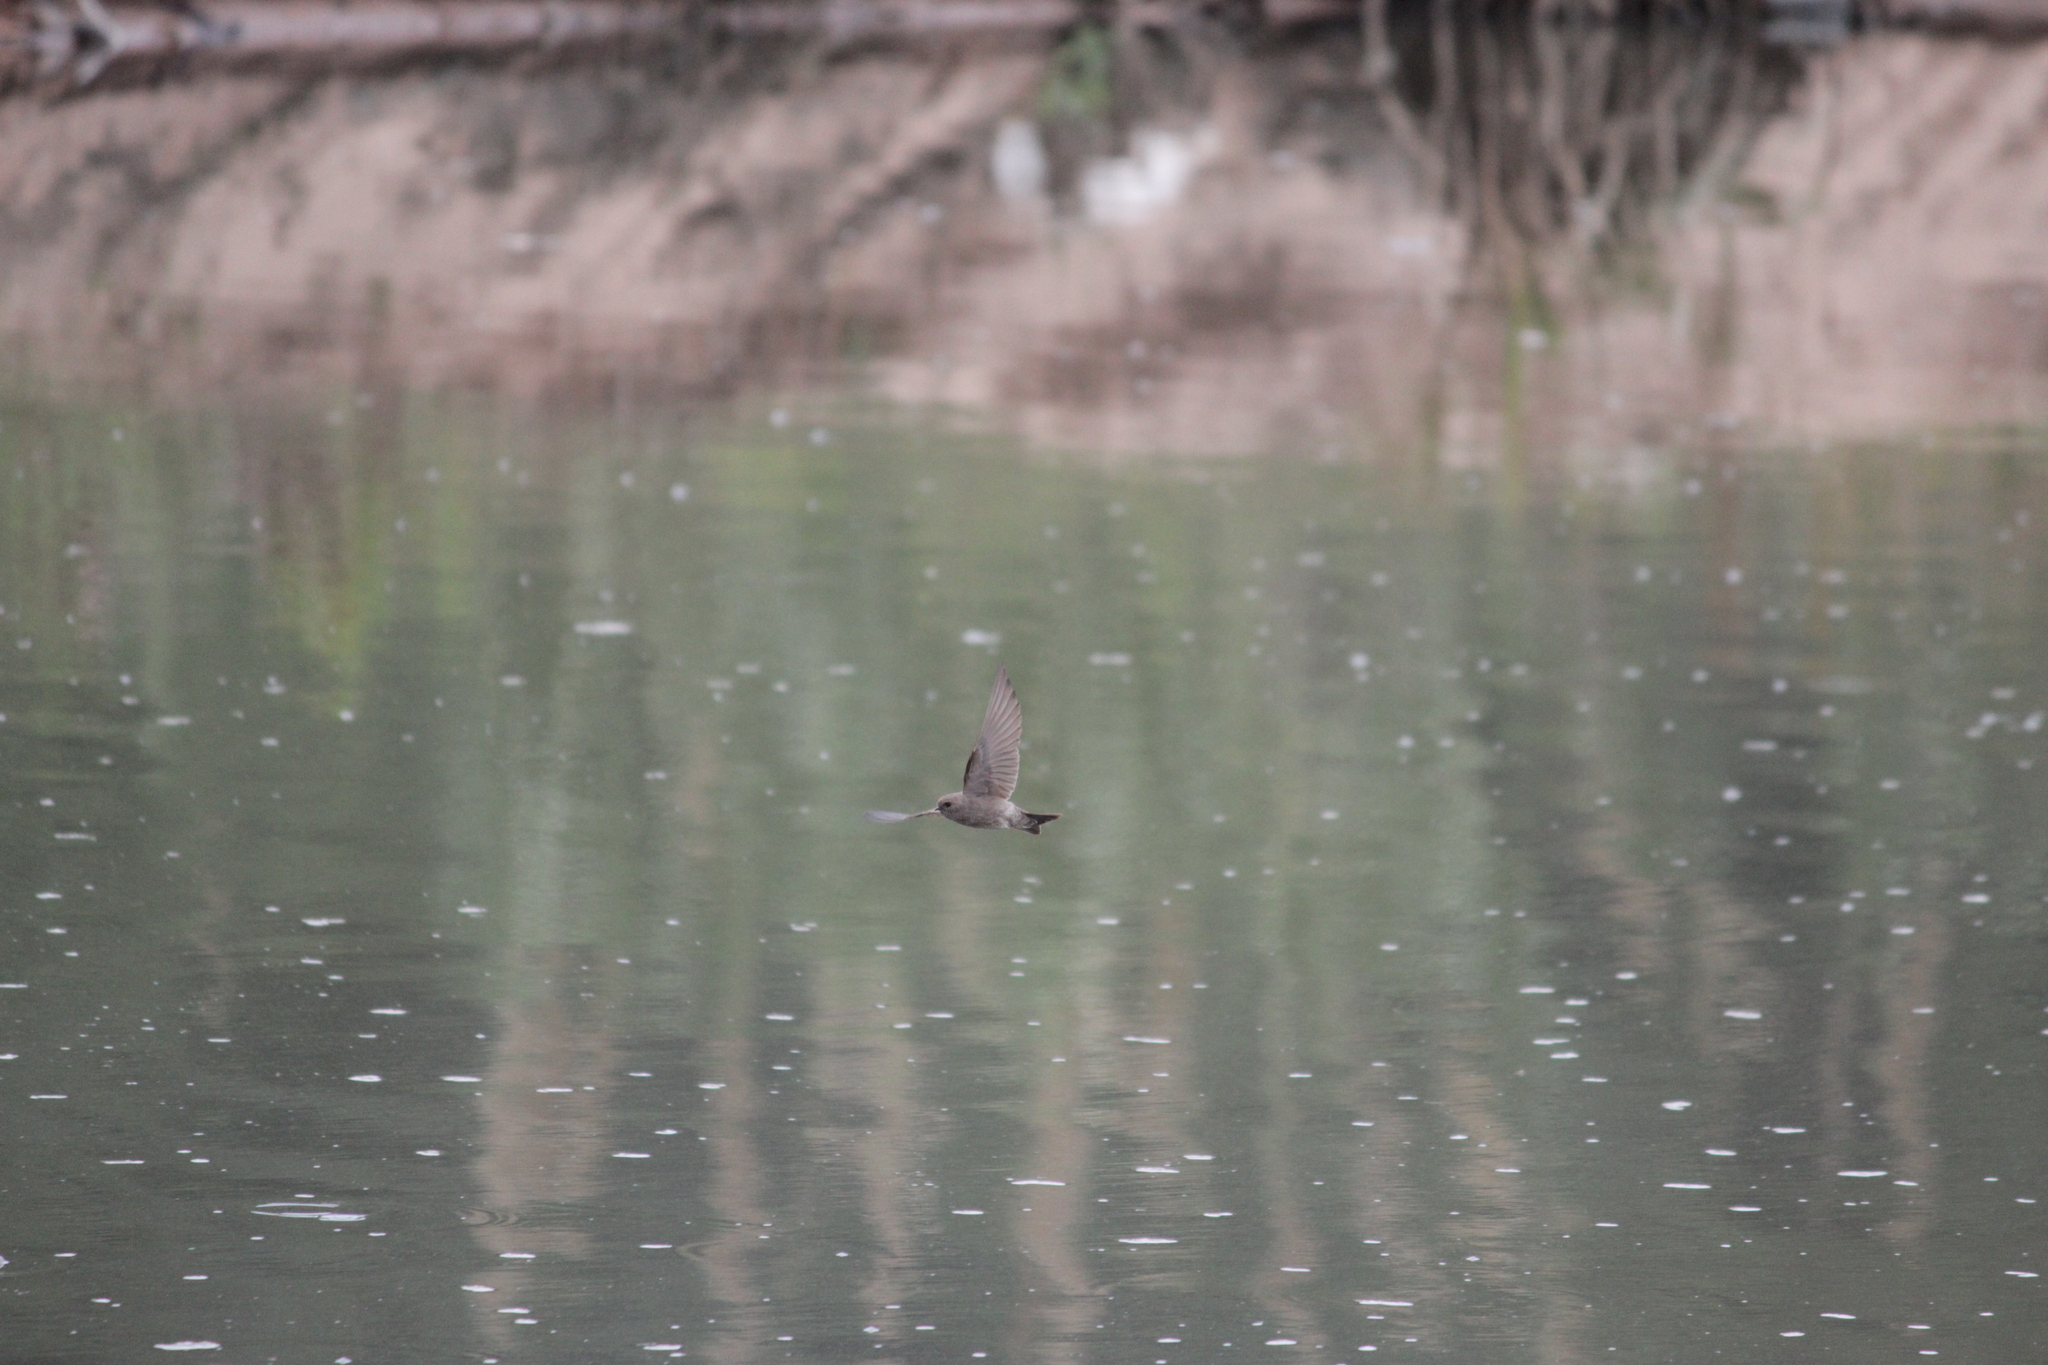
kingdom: Animalia
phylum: Chordata
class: Aves
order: Passeriformes
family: Hirundinidae
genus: Riparia
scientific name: Riparia paludicola
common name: Brown-throated martin
